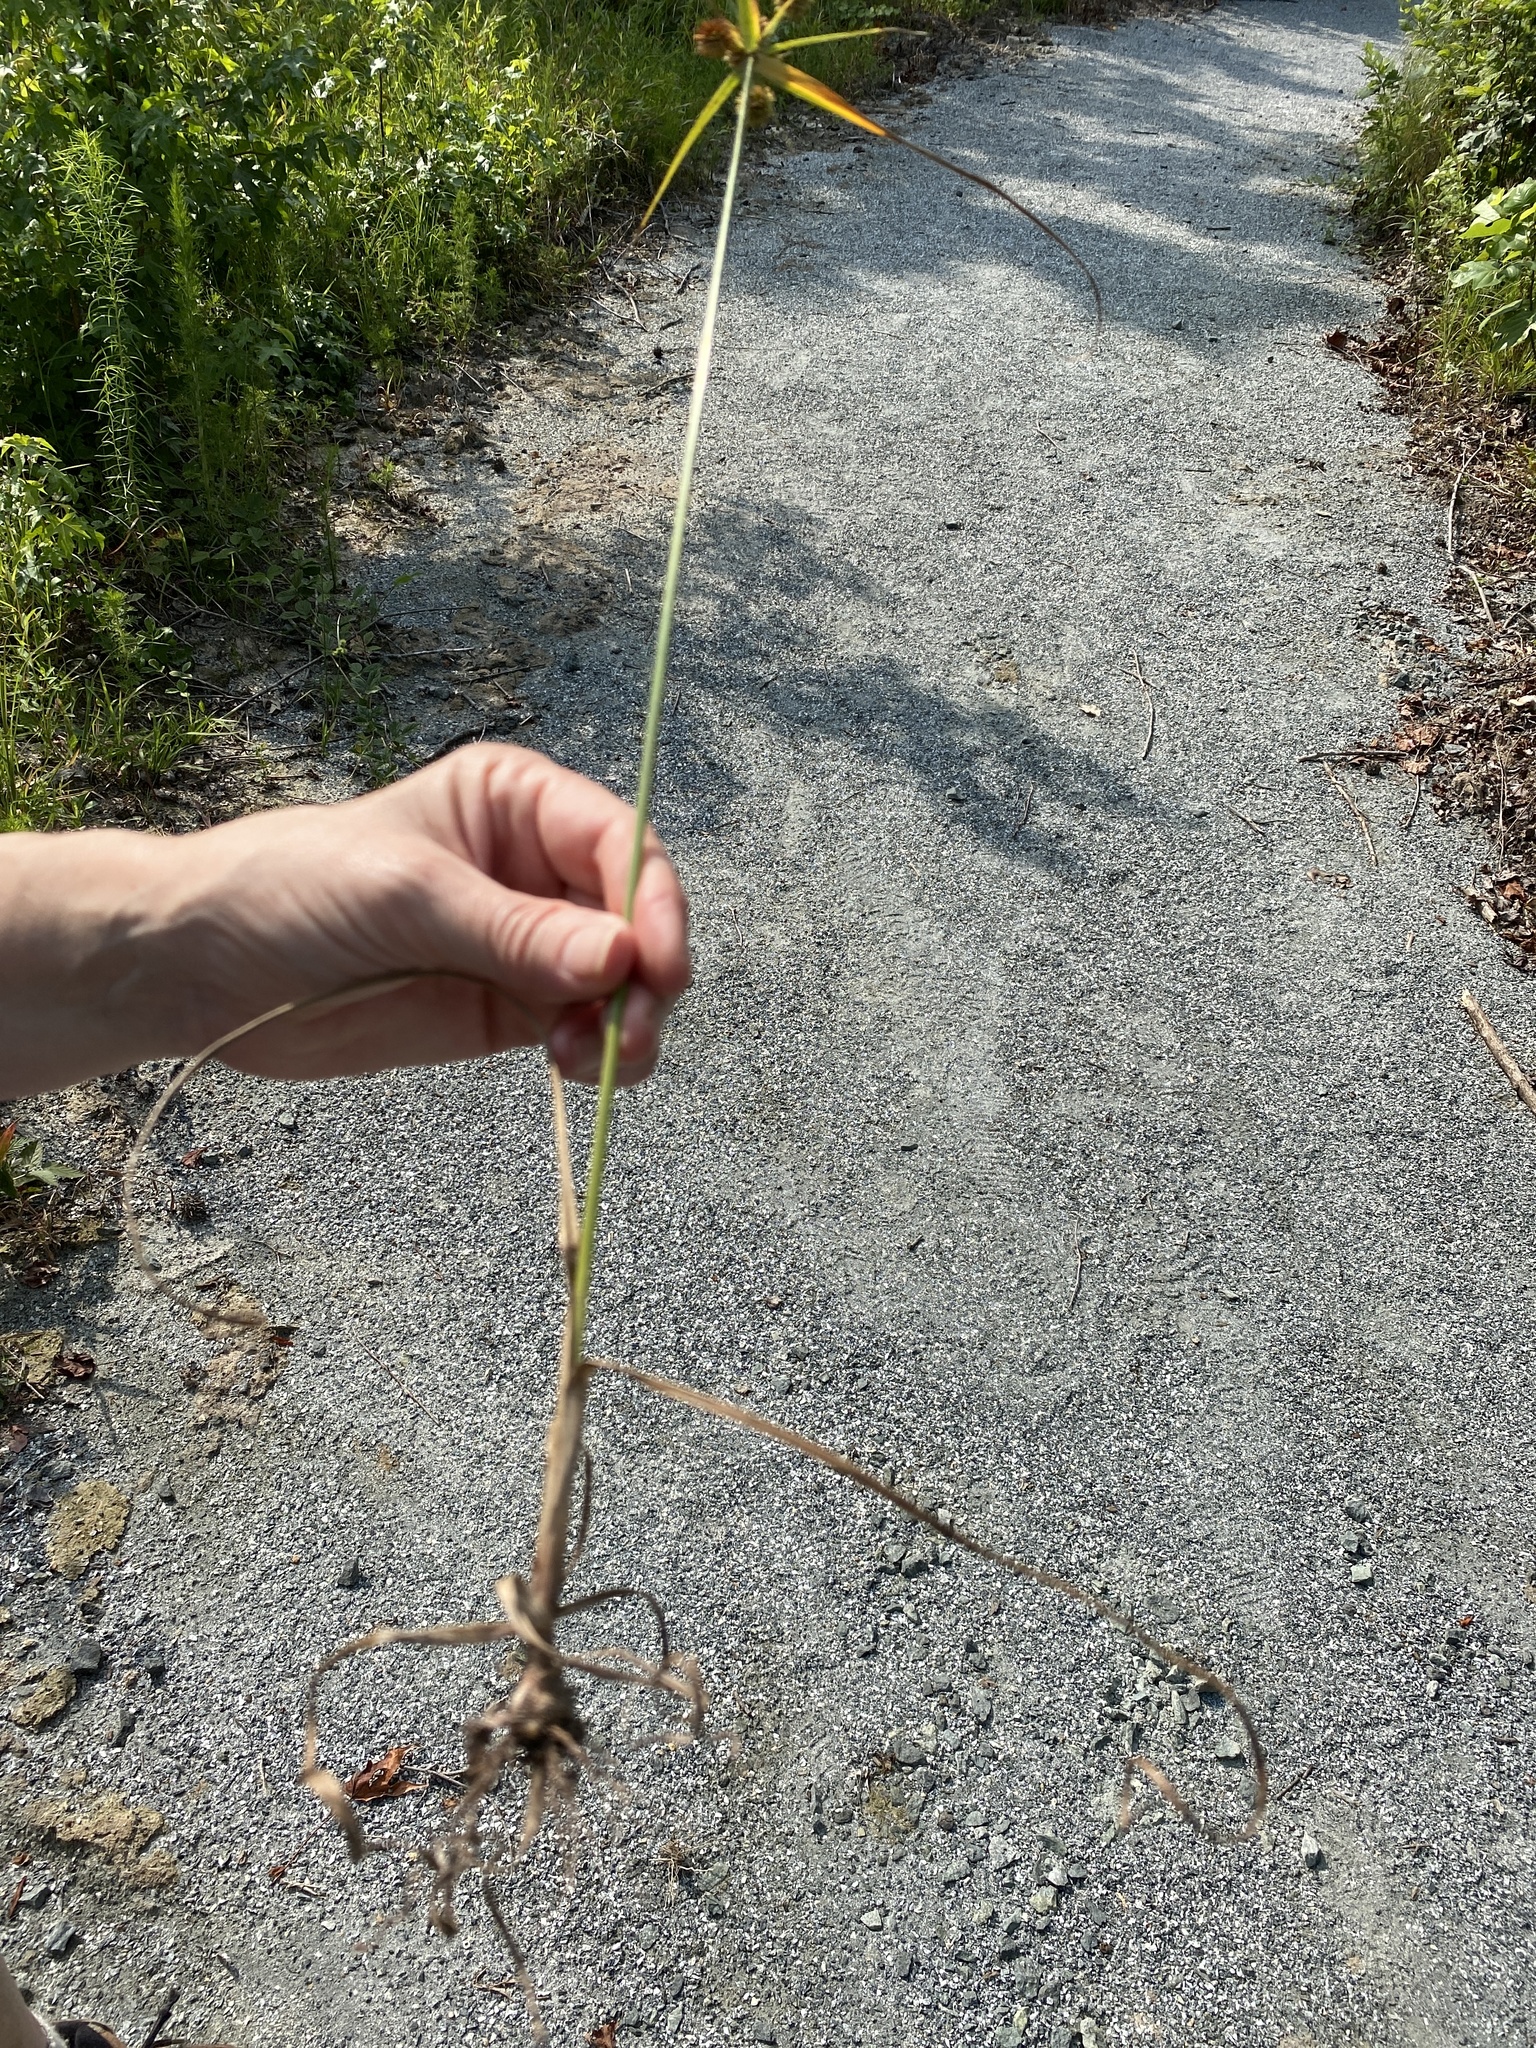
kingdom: Plantae
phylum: Tracheophyta
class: Liliopsida
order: Poales
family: Cyperaceae
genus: Cyperus
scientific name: Cyperus echinatus
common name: Teasel sedge
